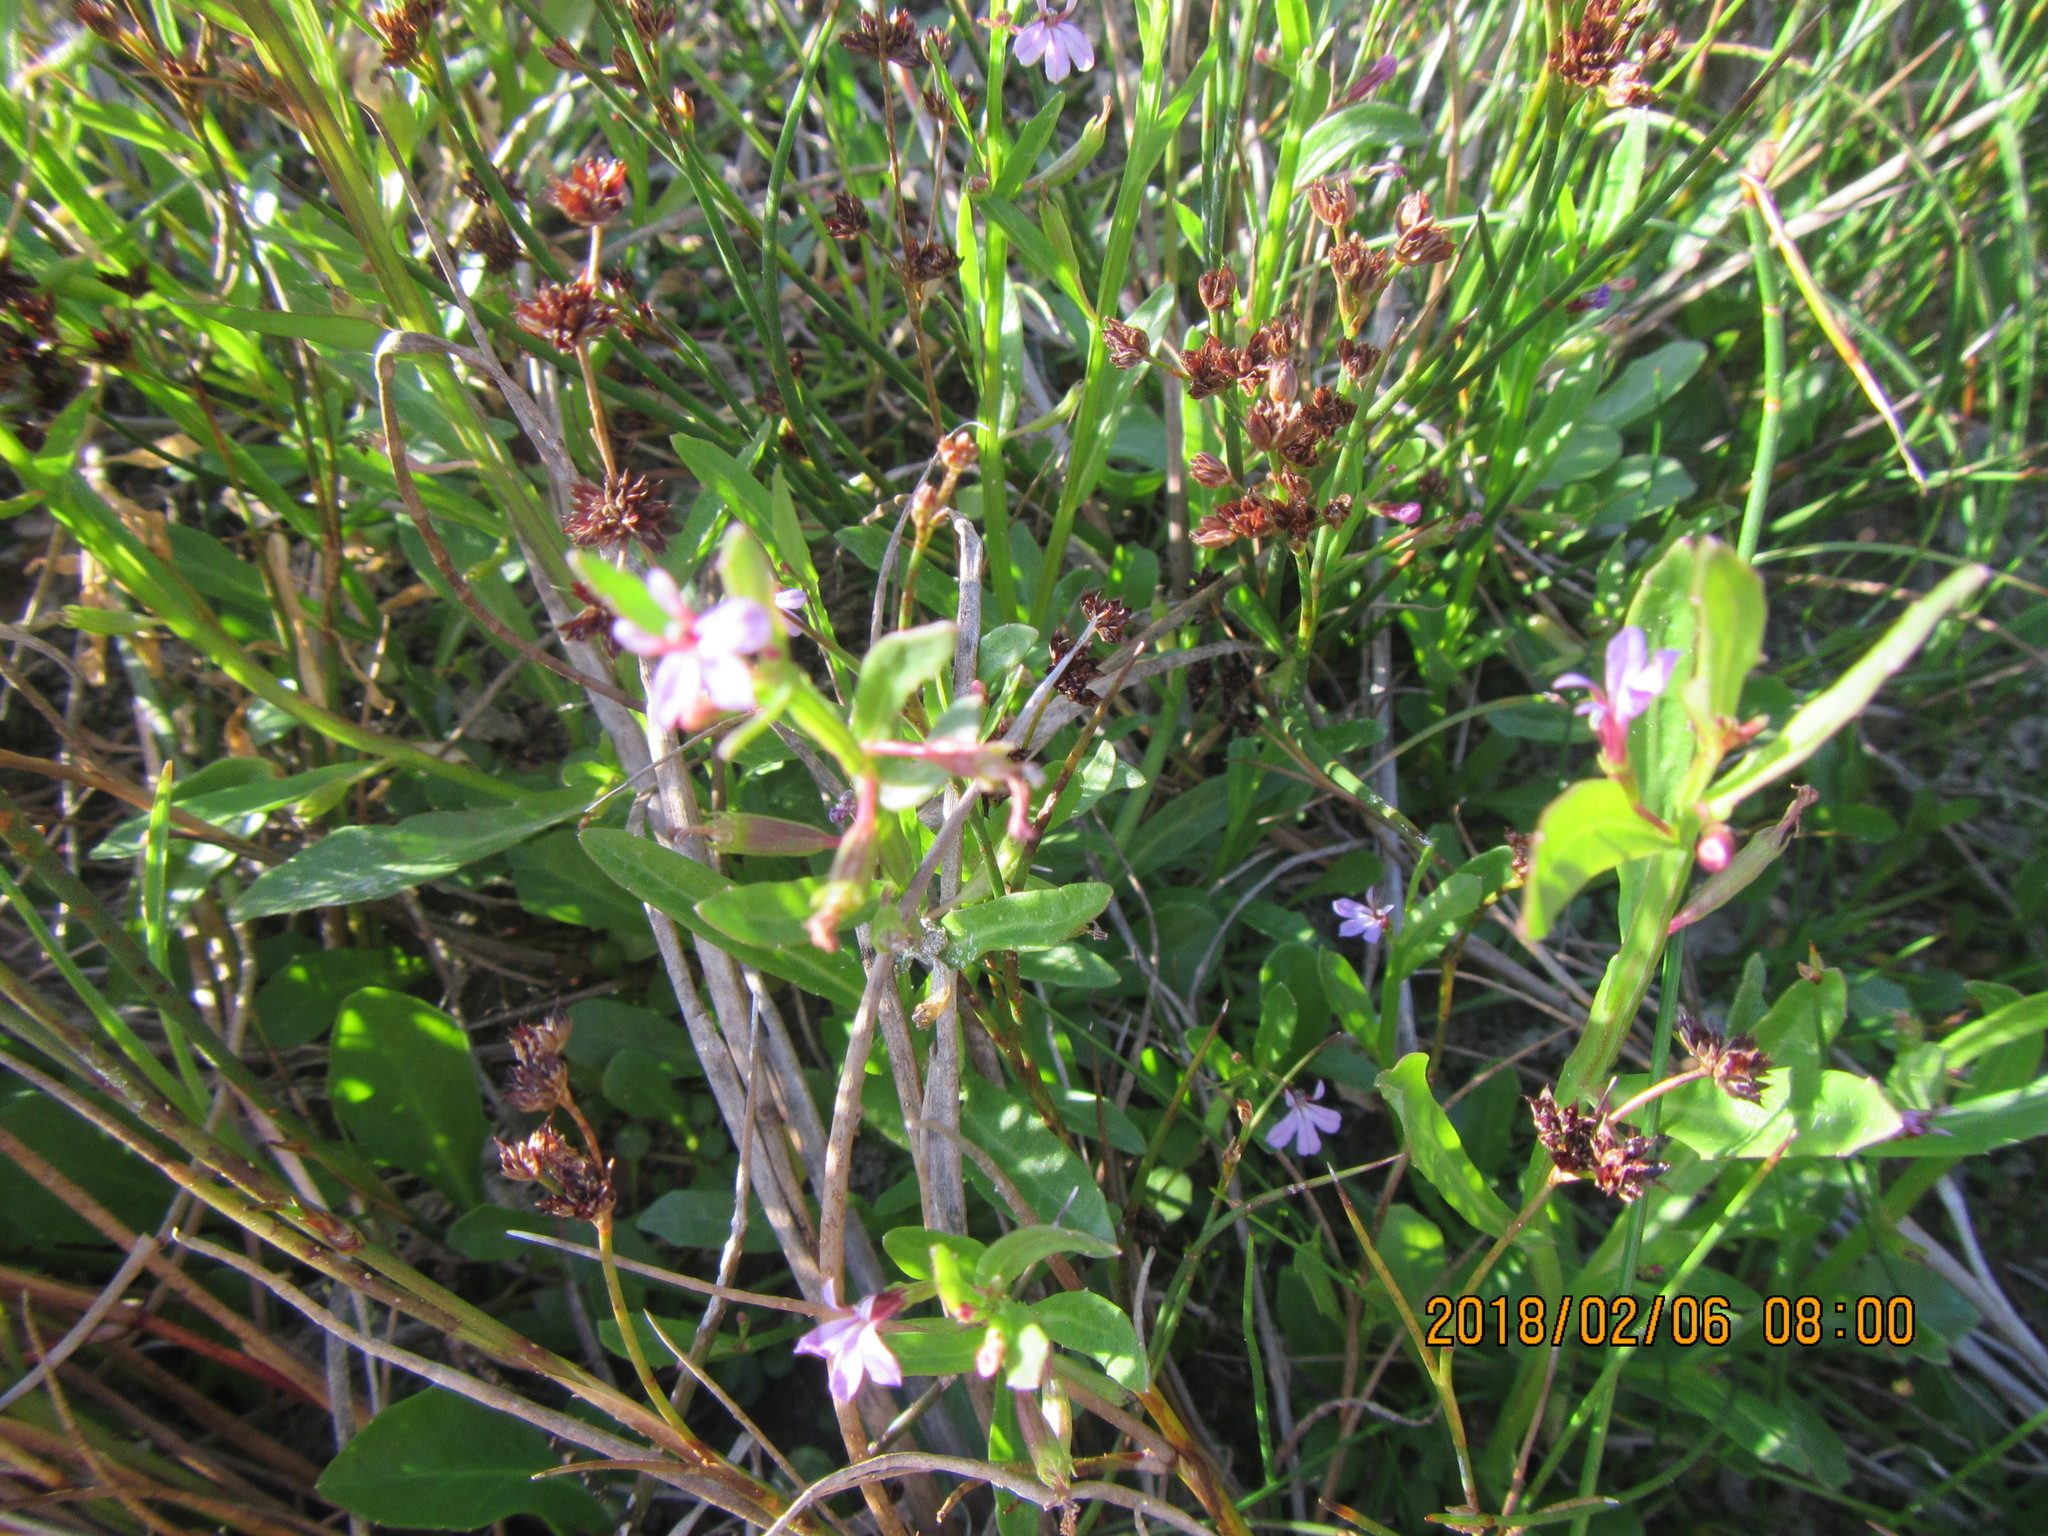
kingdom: Plantae
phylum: Tracheophyta
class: Magnoliopsida
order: Asterales
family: Campanulaceae
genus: Lobelia
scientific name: Lobelia anceps
